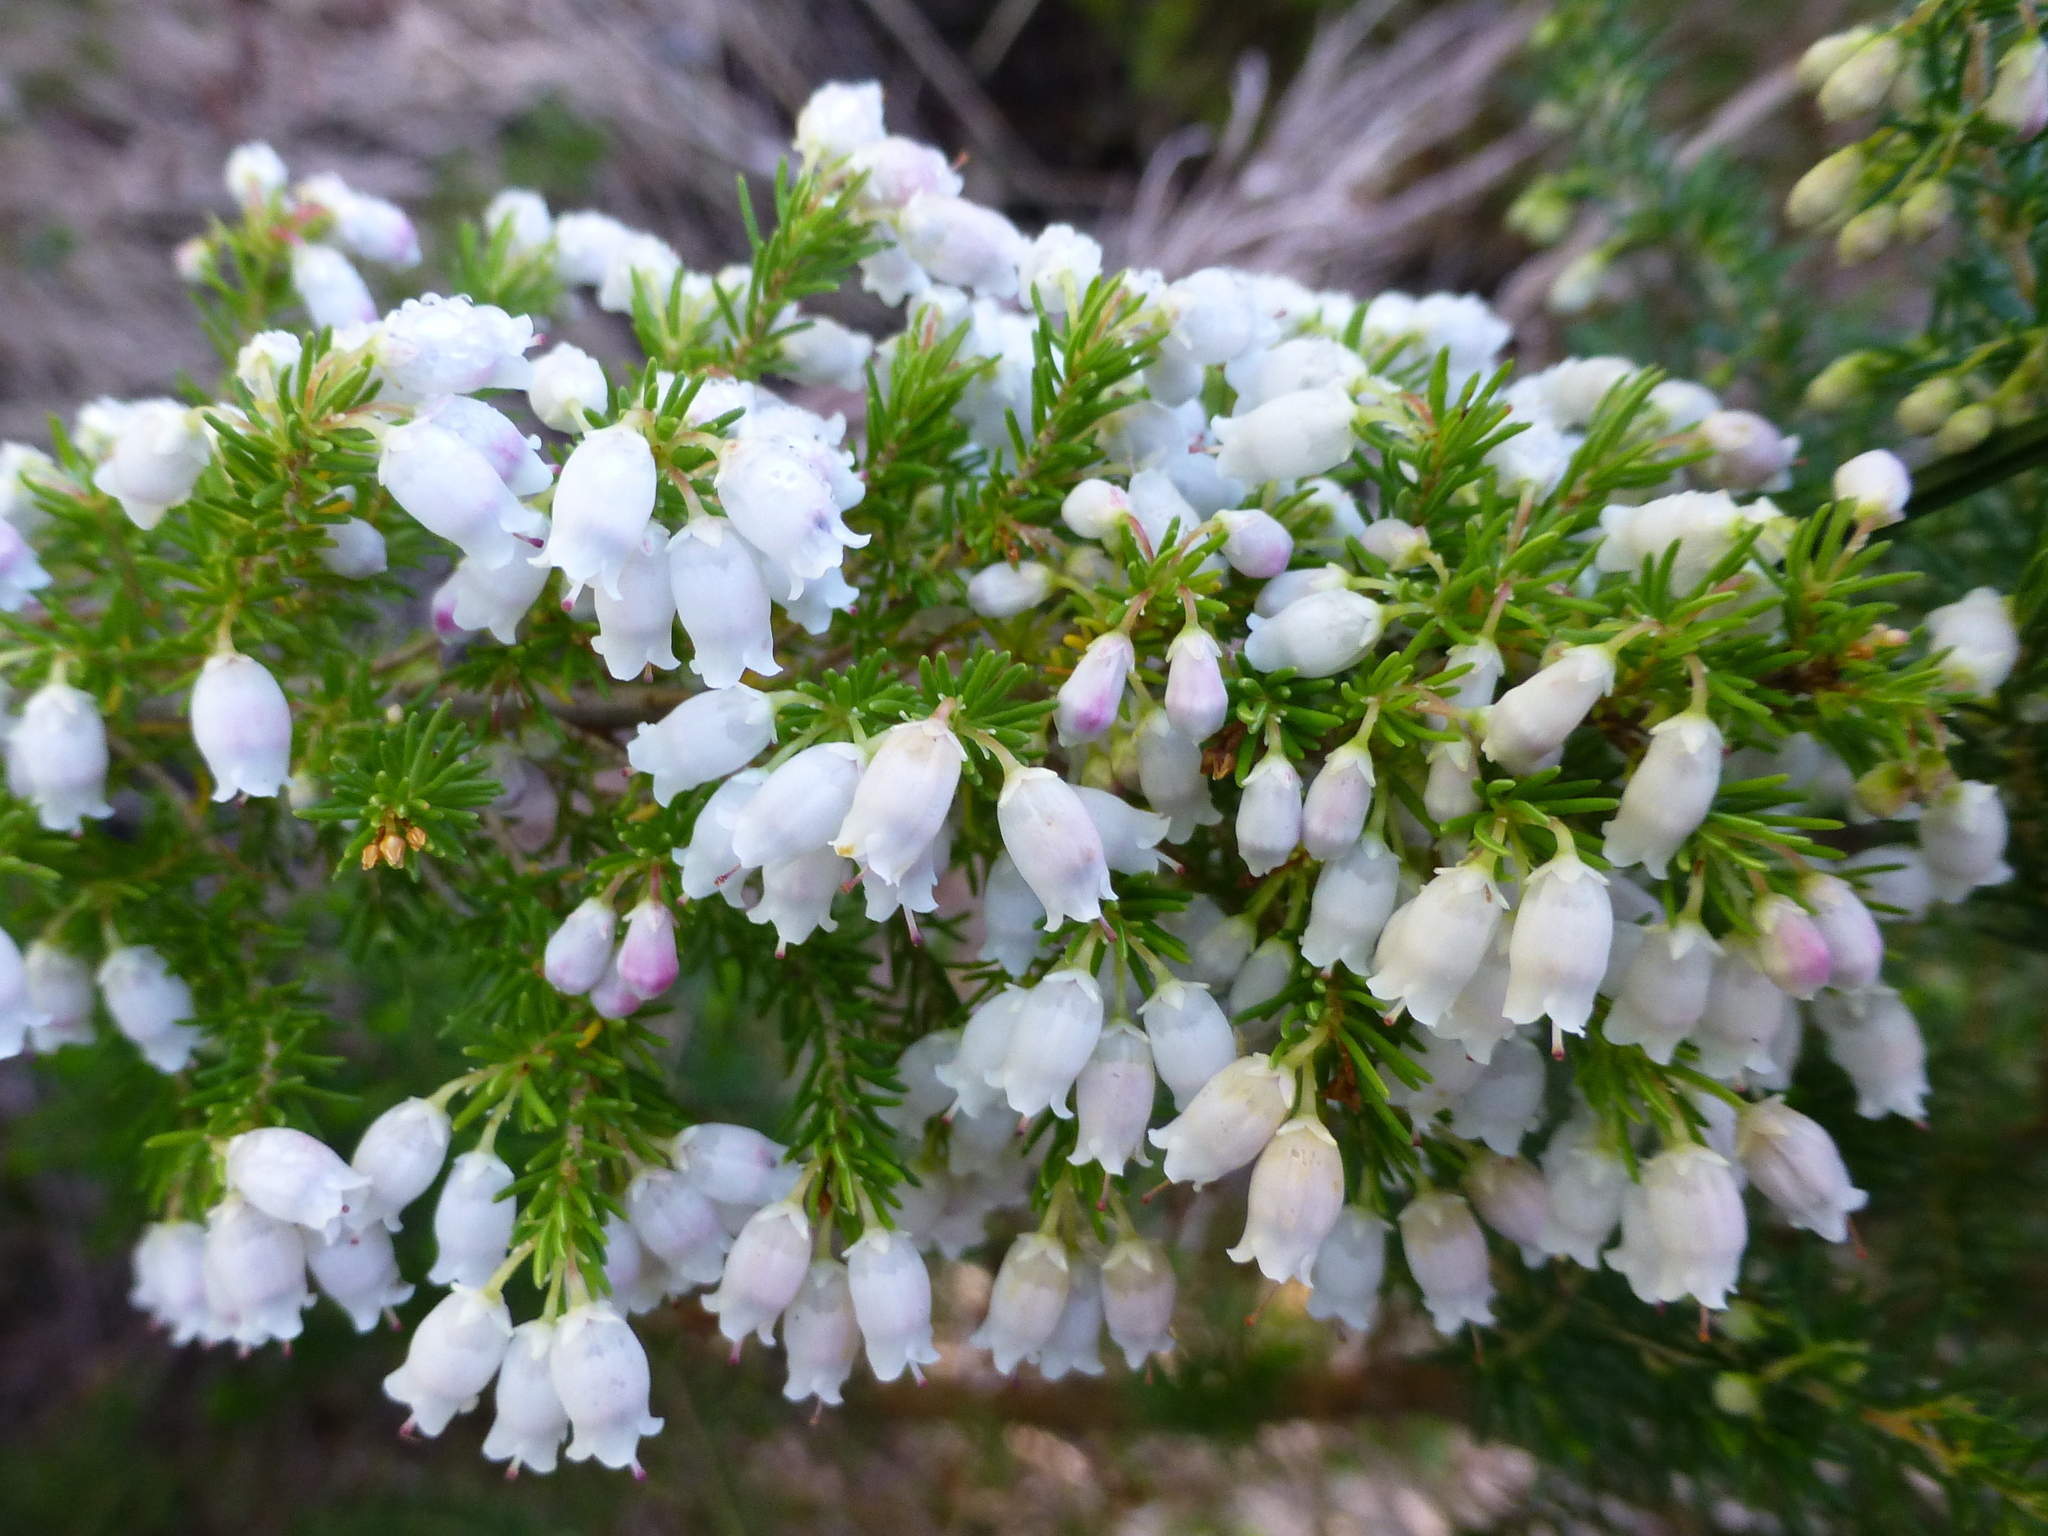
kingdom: Plantae
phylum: Tracheophyta
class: Magnoliopsida
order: Ericales
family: Ericaceae
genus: Erica
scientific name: Erica lusitanica
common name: Spanish heath
